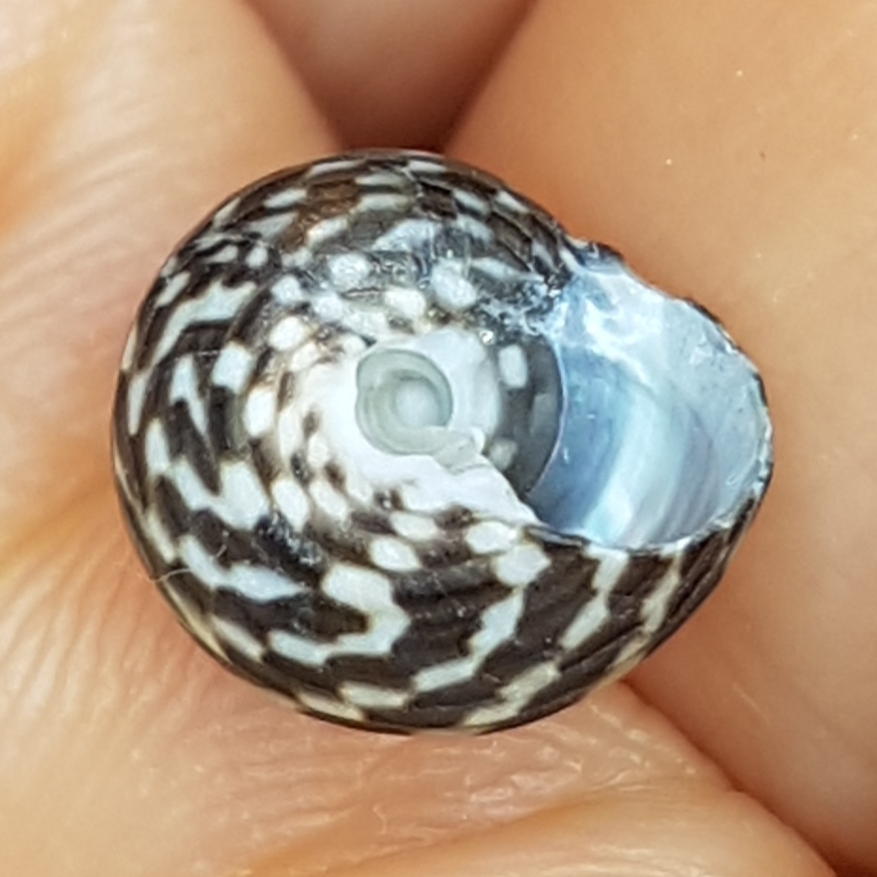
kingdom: Animalia
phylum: Mollusca
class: Gastropoda
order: Trochida
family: Trochidae
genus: Clanculus
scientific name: Clanculus jussieui
